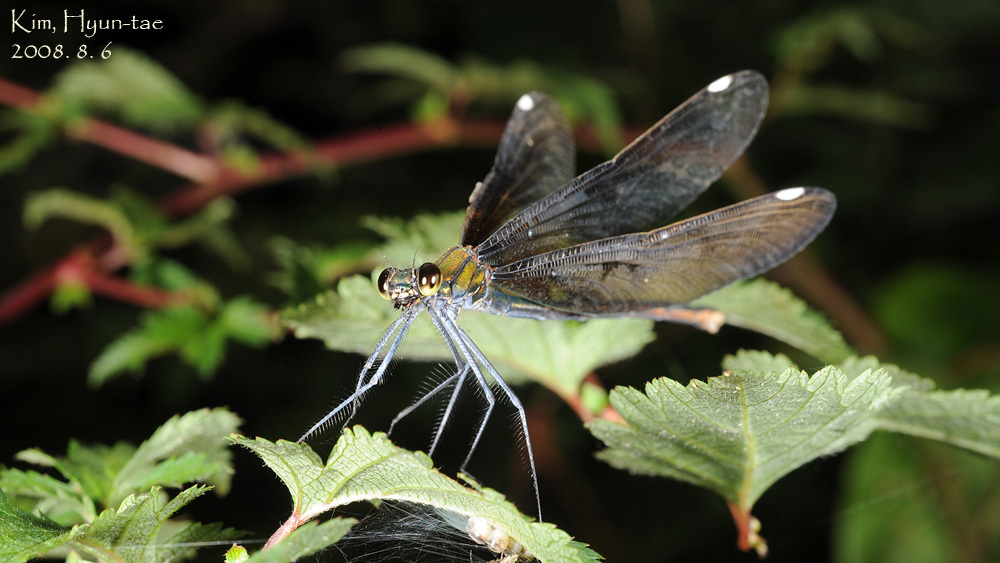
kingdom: Animalia
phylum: Arthropoda
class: Insecta
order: Odonata
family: Calopterygidae
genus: Calopteryx
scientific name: Calopteryx japonica
